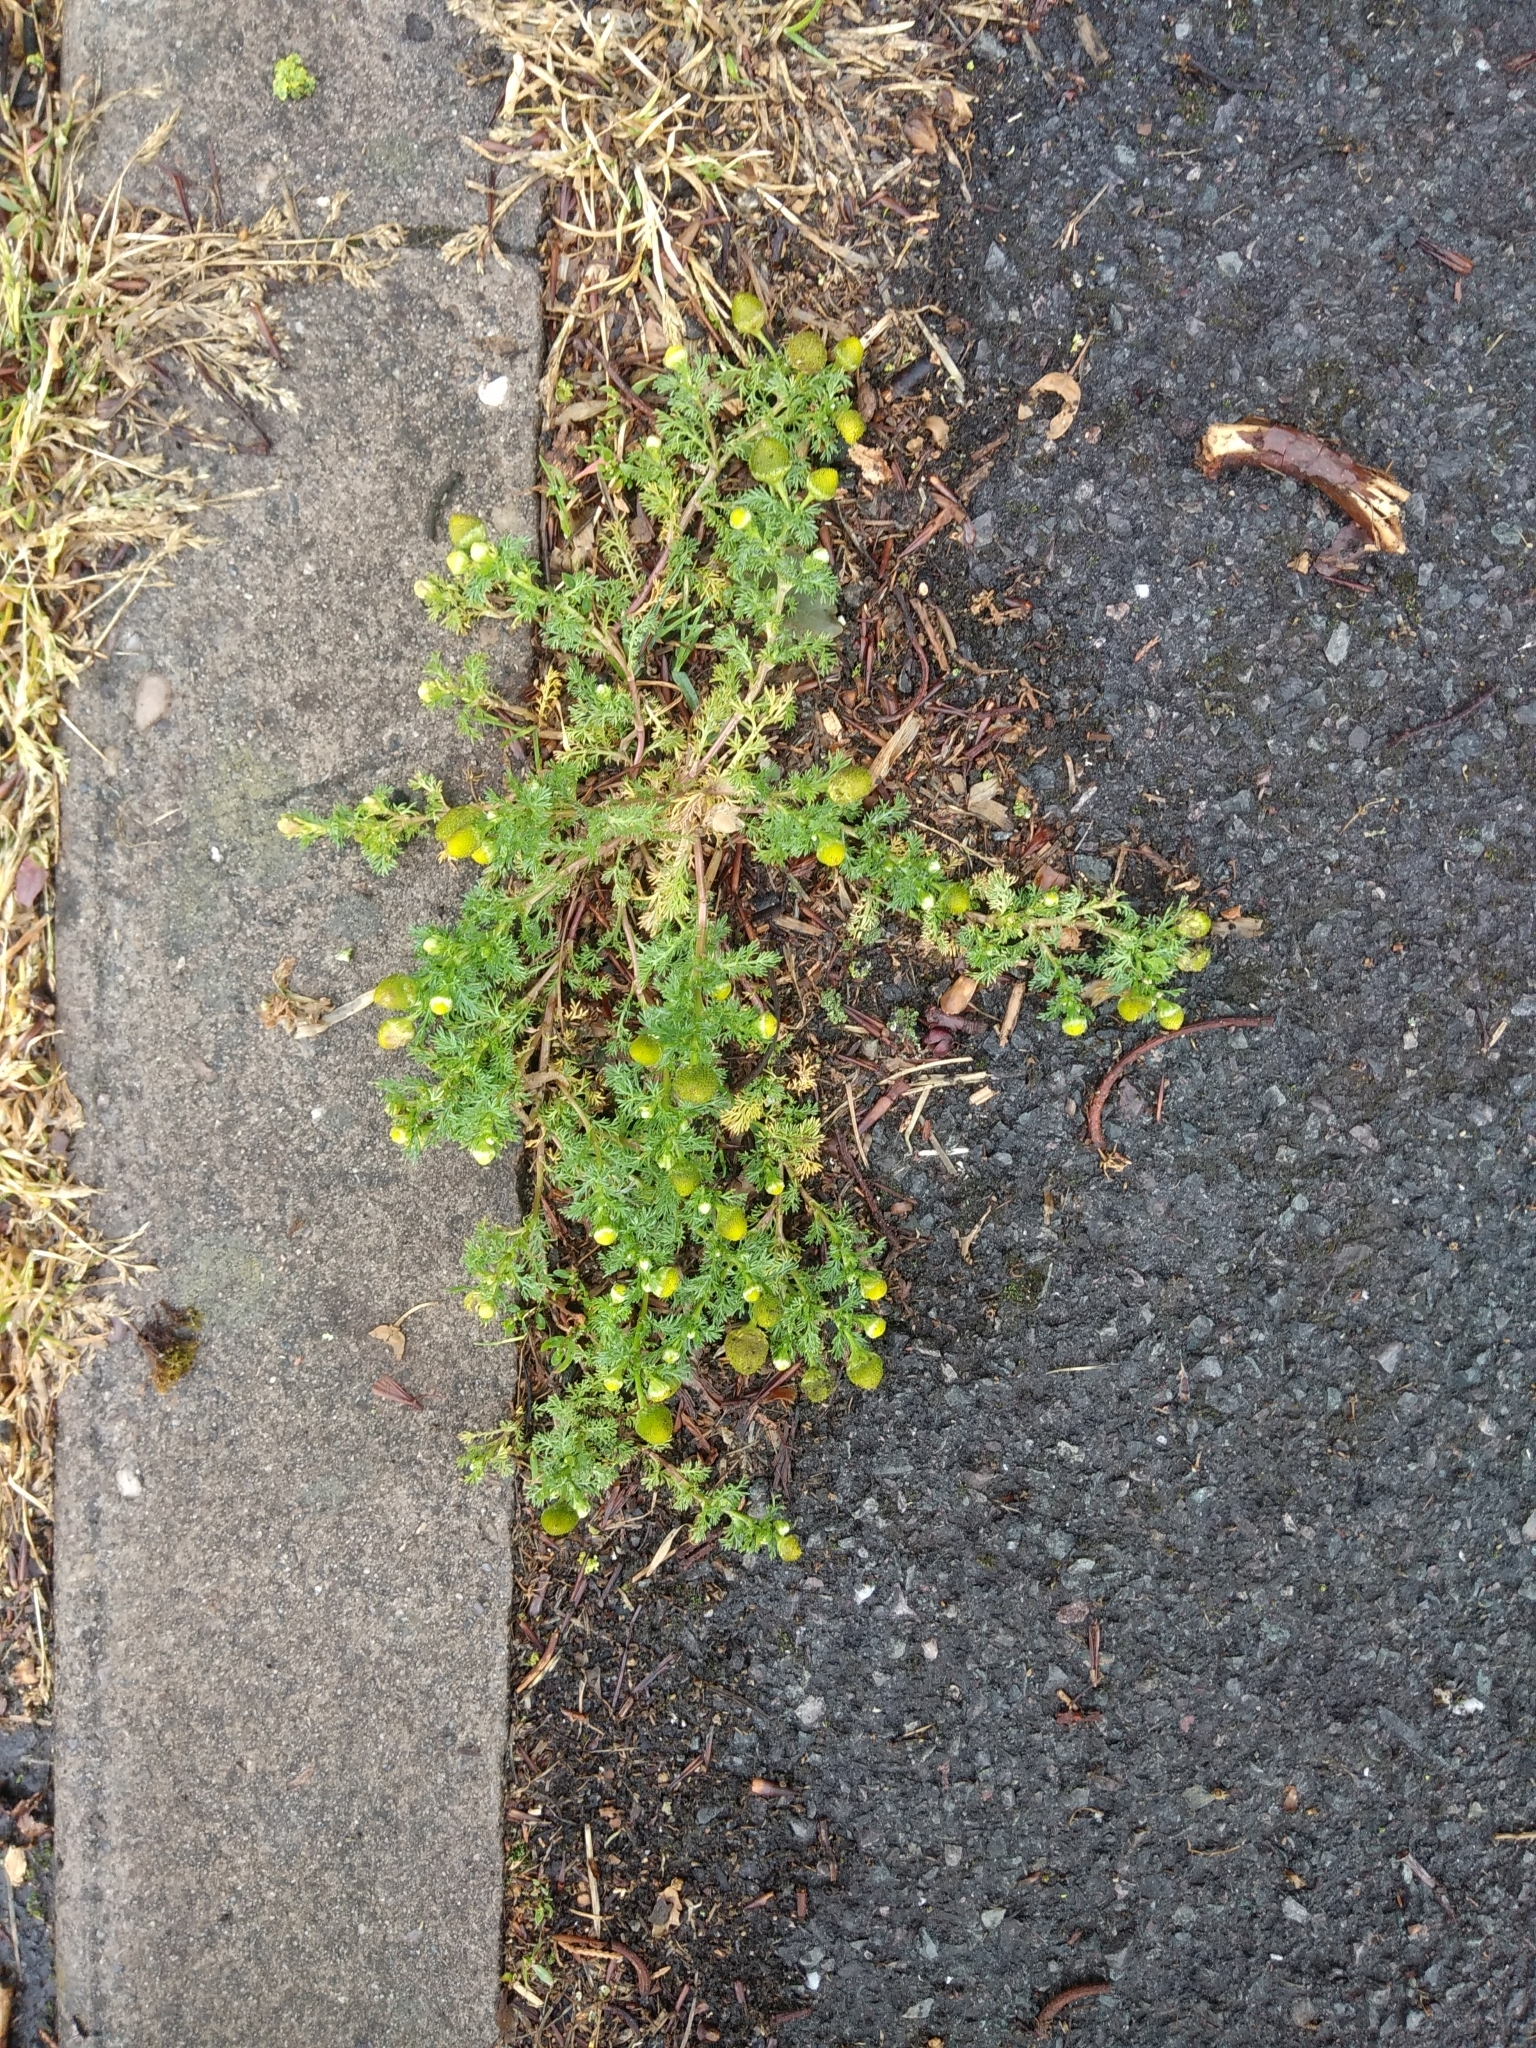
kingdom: Plantae
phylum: Tracheophyta
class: Magnoliopsida
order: Asterales
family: Asteraceae
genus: Matricaria
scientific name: Matricaria discoidea
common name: Disc mayweed
